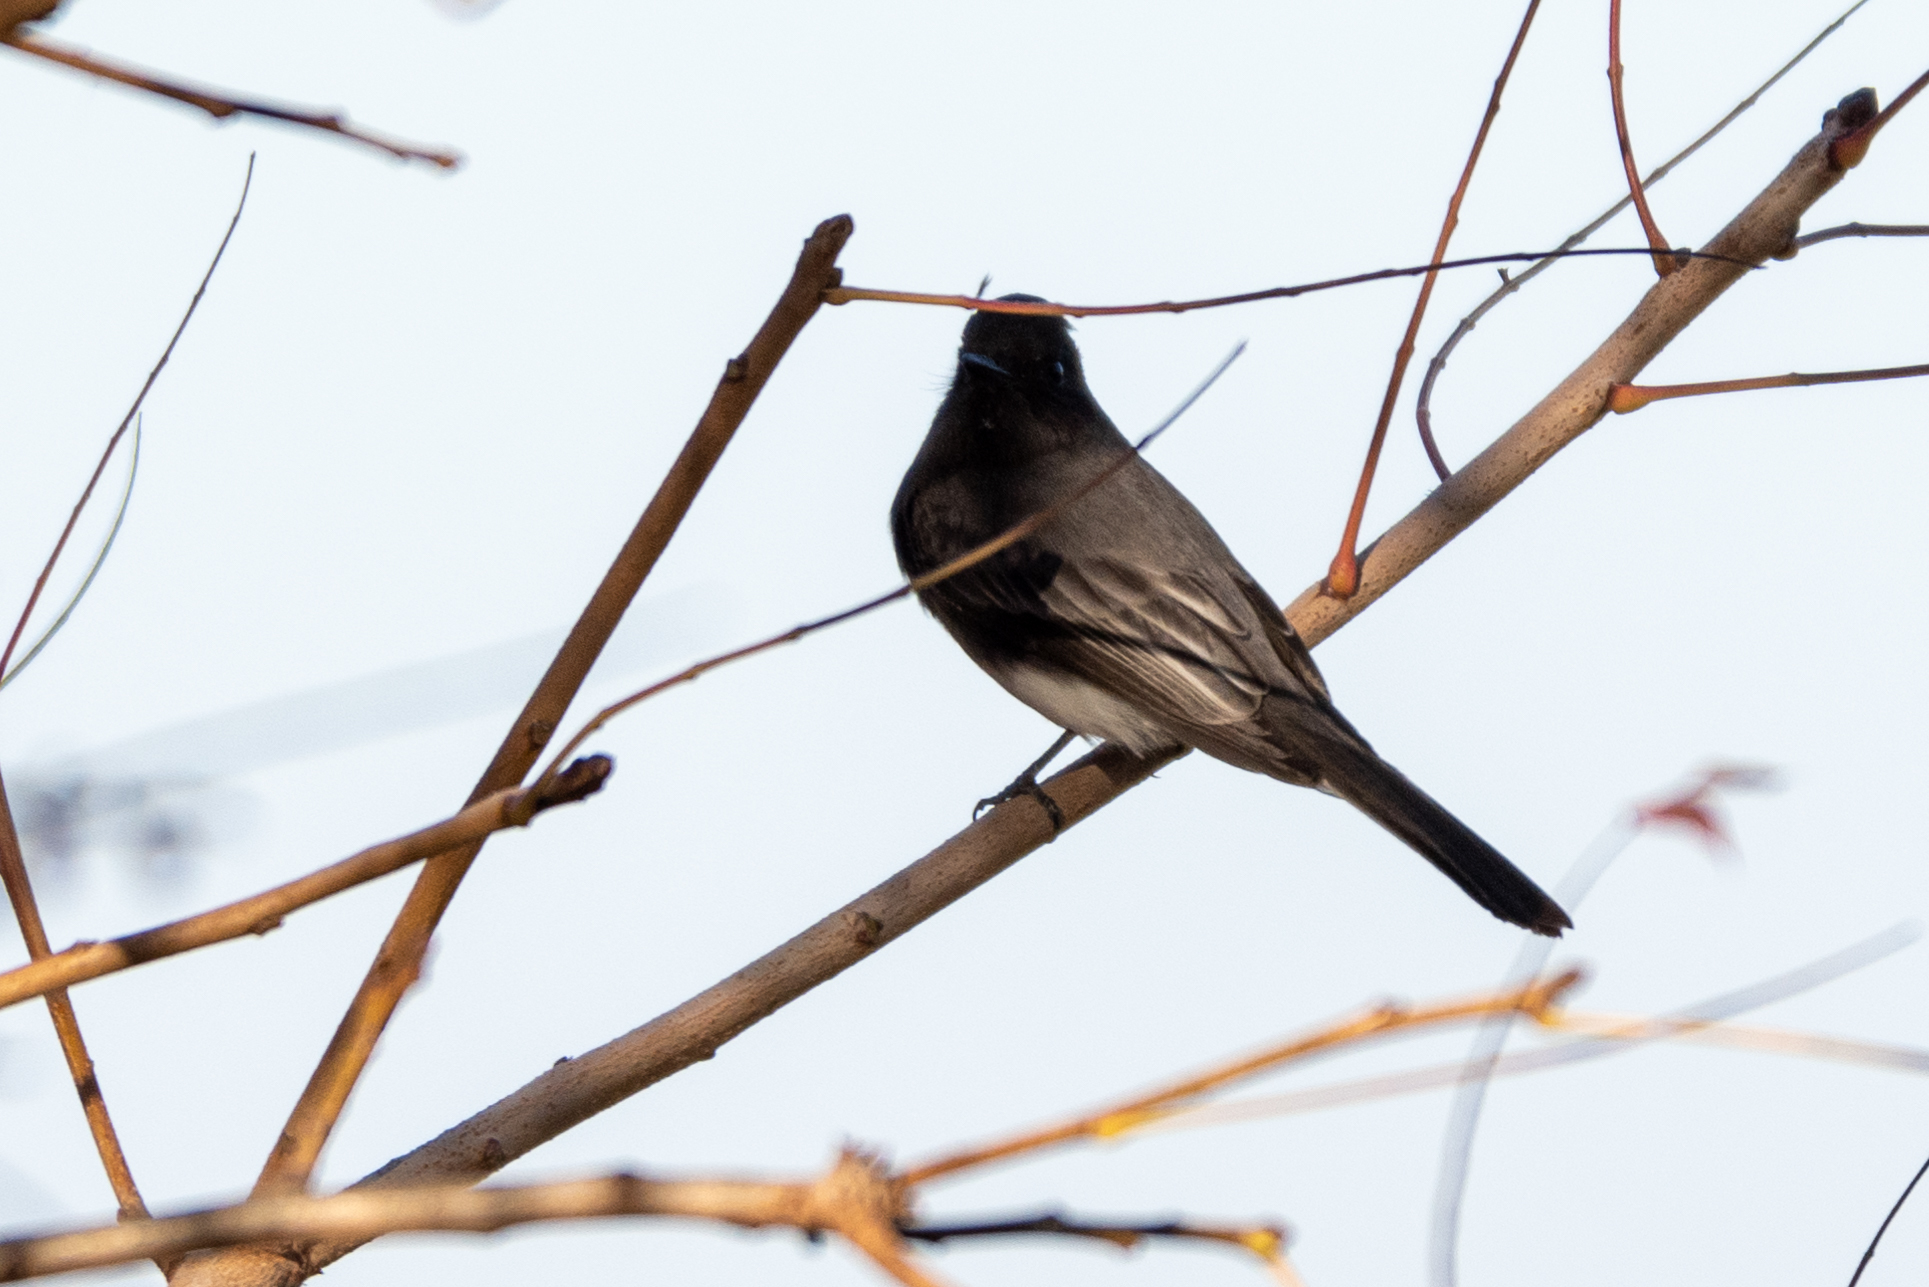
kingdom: Animalia
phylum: Chordata
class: Aves
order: Passeriformes
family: Tyrannidae
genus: Sayornis
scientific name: Sayornis nigricans
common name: Black phoebe
